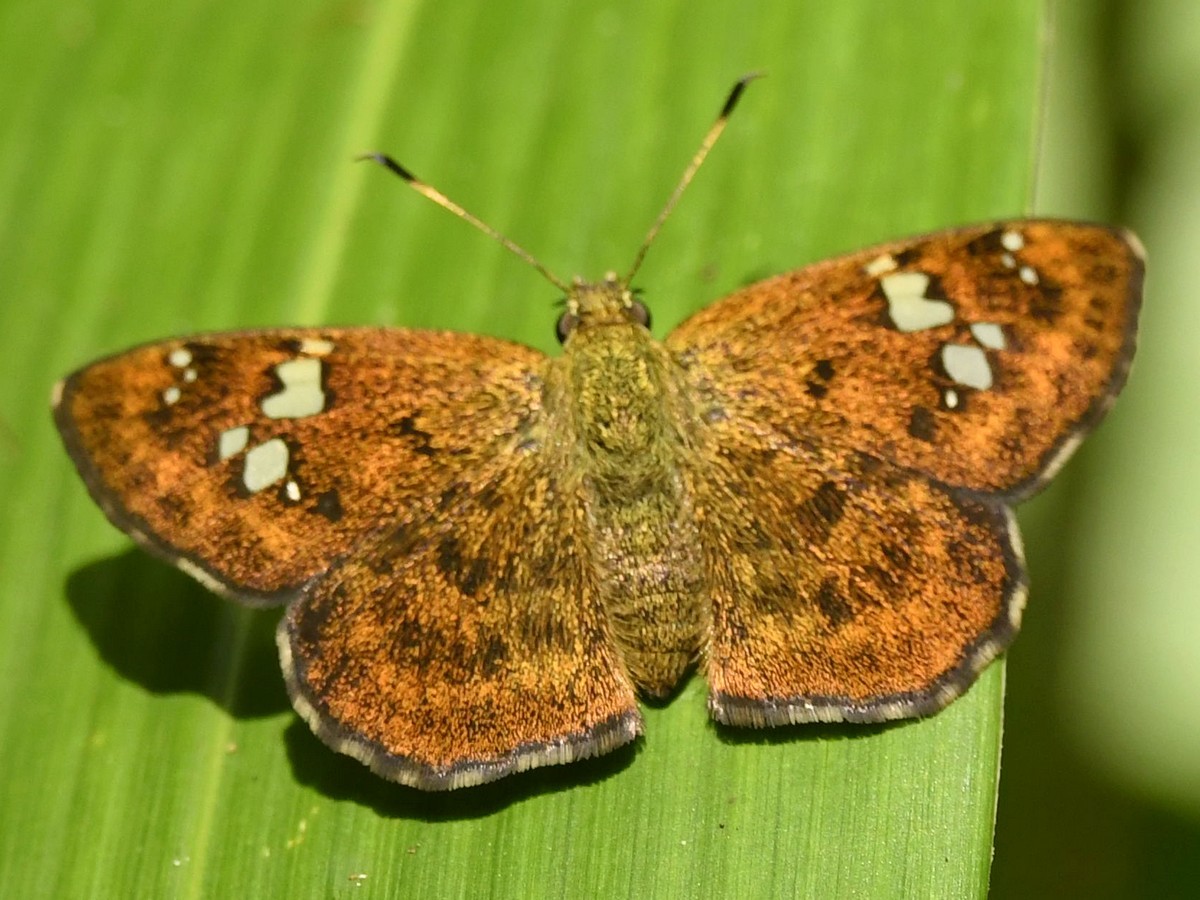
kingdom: Animalia
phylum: Arthropoda
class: Insecta
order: Lepidoptera
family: Hesperiidae
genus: Pseudocoladenia
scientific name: Pseudocoladenia dan
